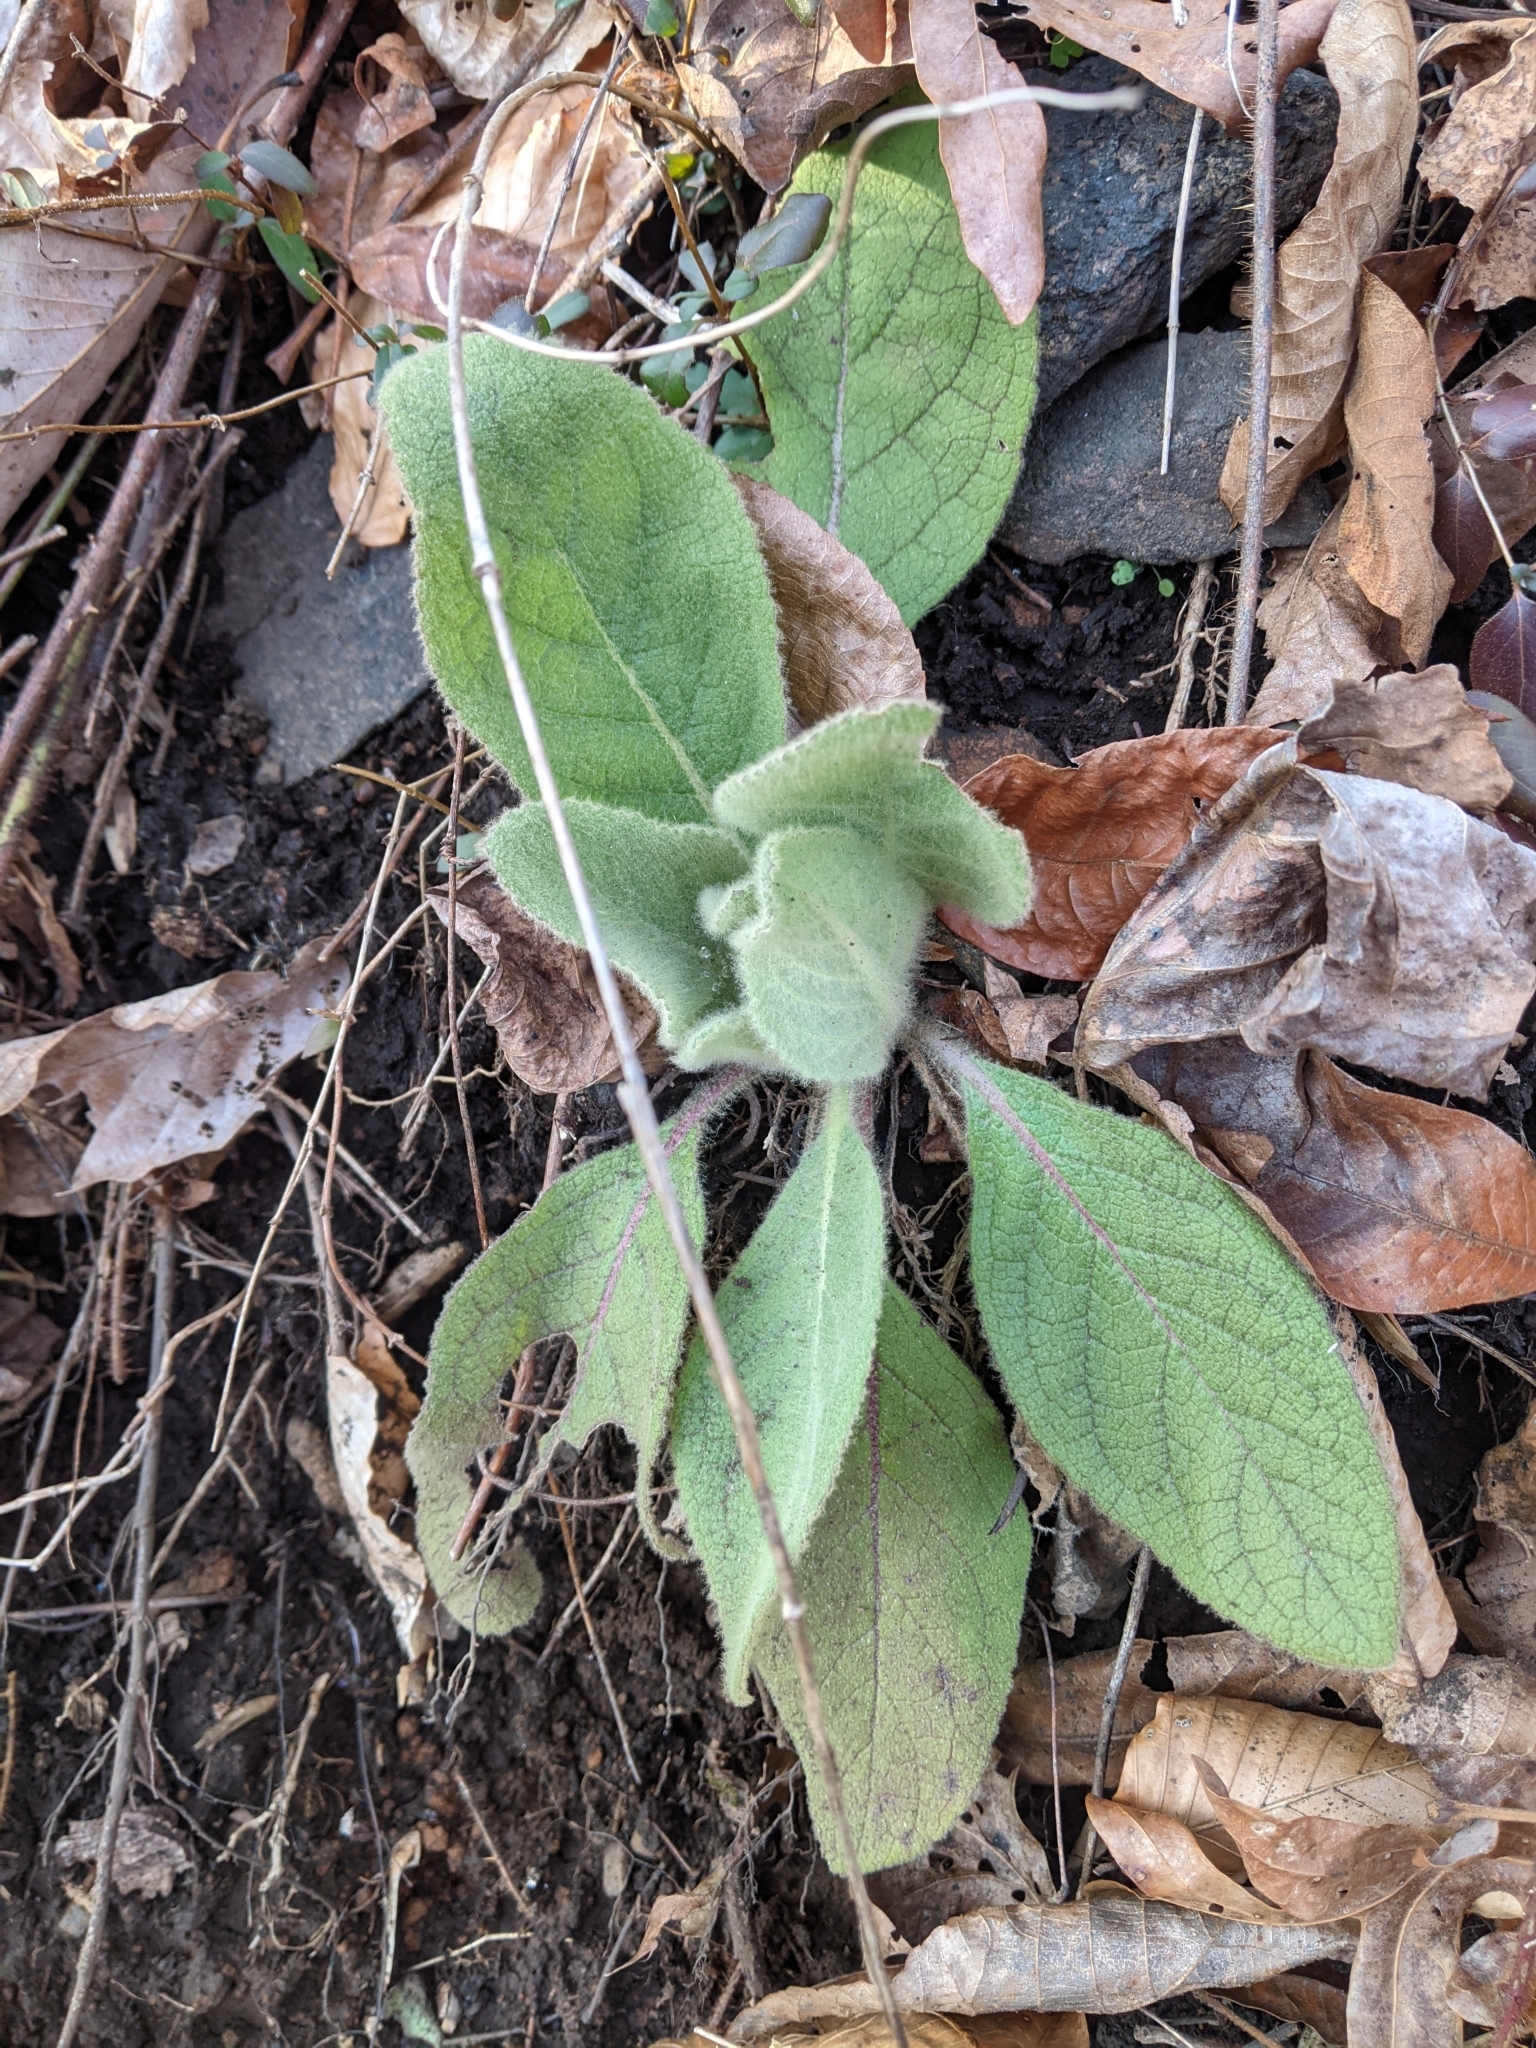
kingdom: Plantae
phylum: Tracheophyta
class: Magnoliopsida
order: Lamiales
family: Scrophulariaceae
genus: Verbascum
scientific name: Verbascum thapsus
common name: Common mullein
